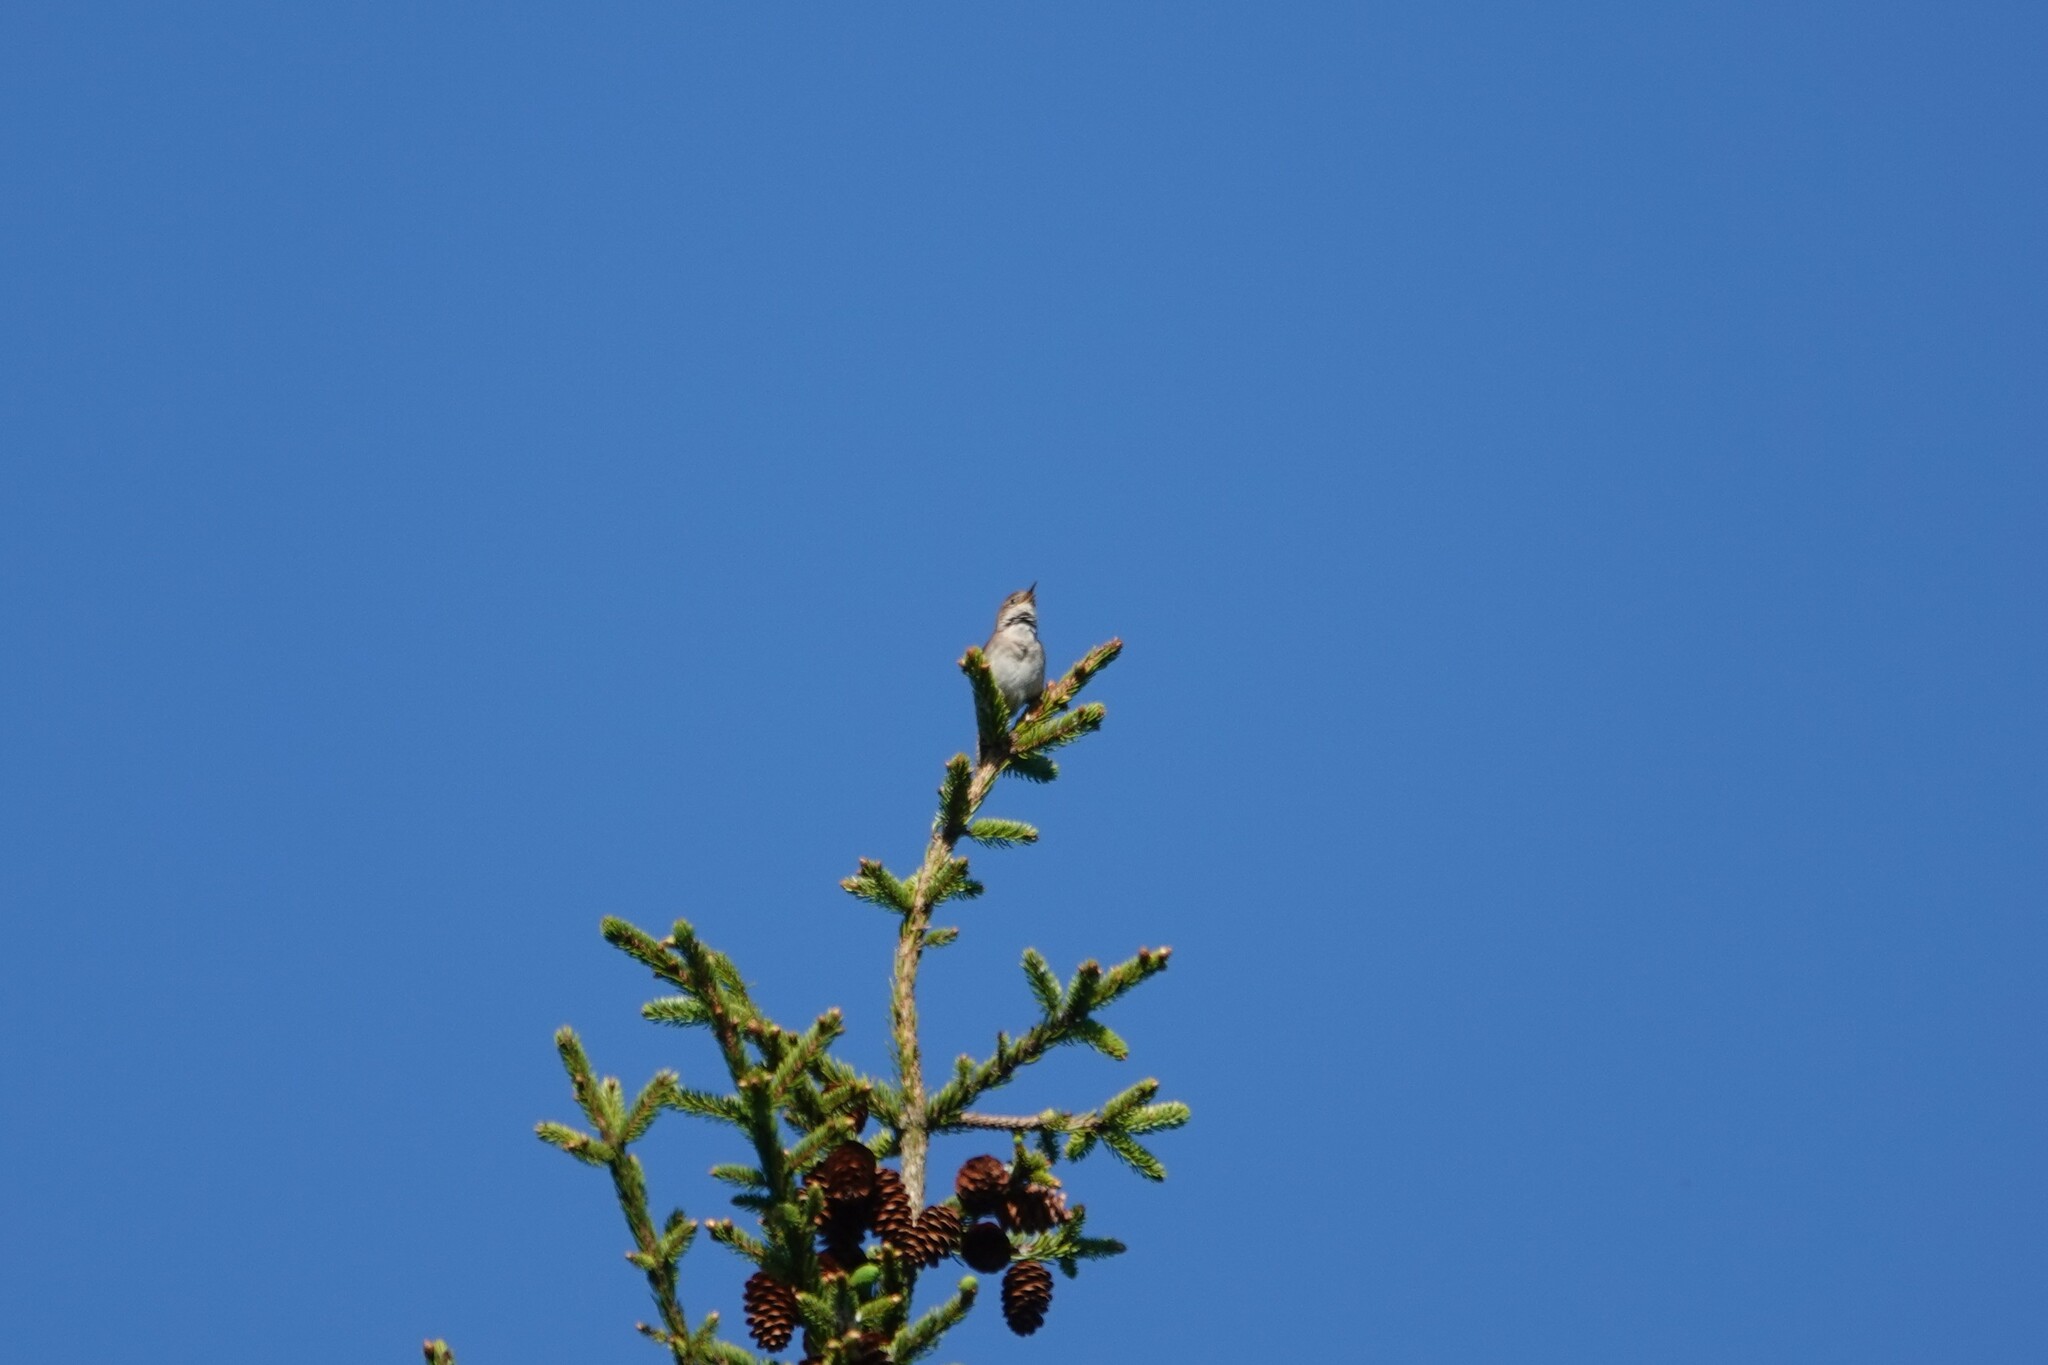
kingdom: Animalia
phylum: Chordata
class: Aves
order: Passeriformes
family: Troglodytidae
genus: Troglodytes
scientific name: Troglodytes aedon
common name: House wren
